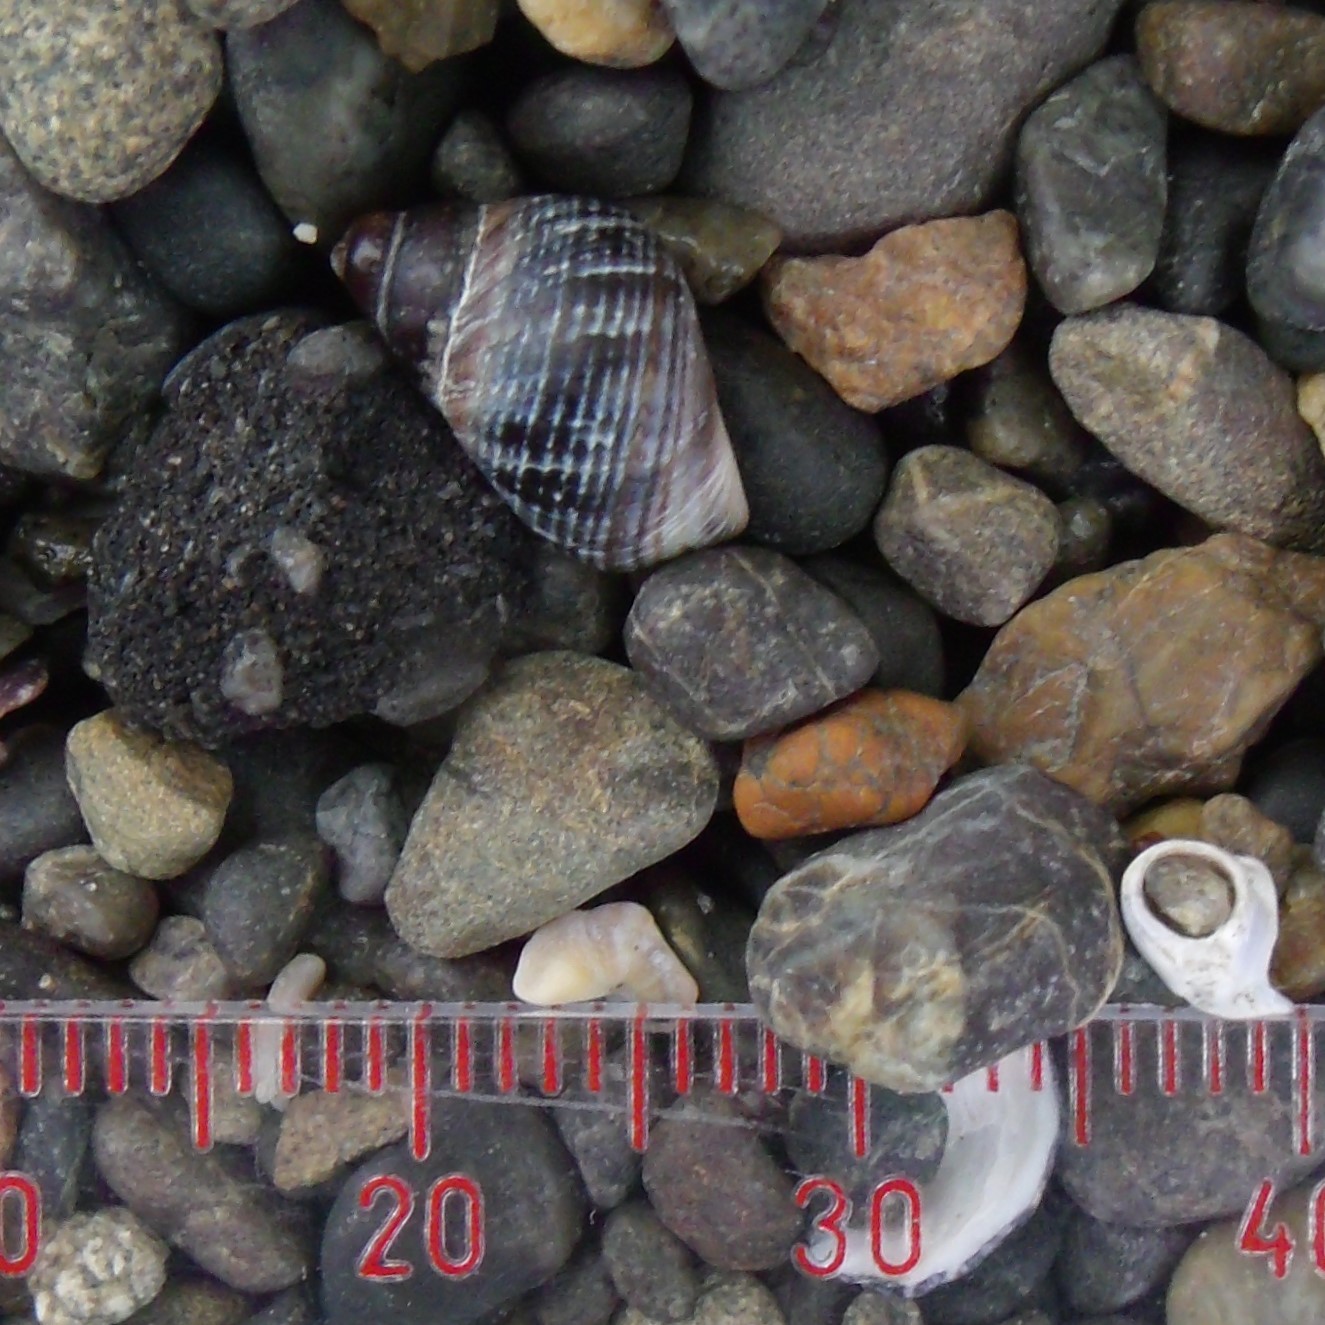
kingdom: Animalia
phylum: Mollusca
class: Gastropoda
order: Littorinimorpha
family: Littorinidae
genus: Austrolittorina
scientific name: Austrolittorina cincta
